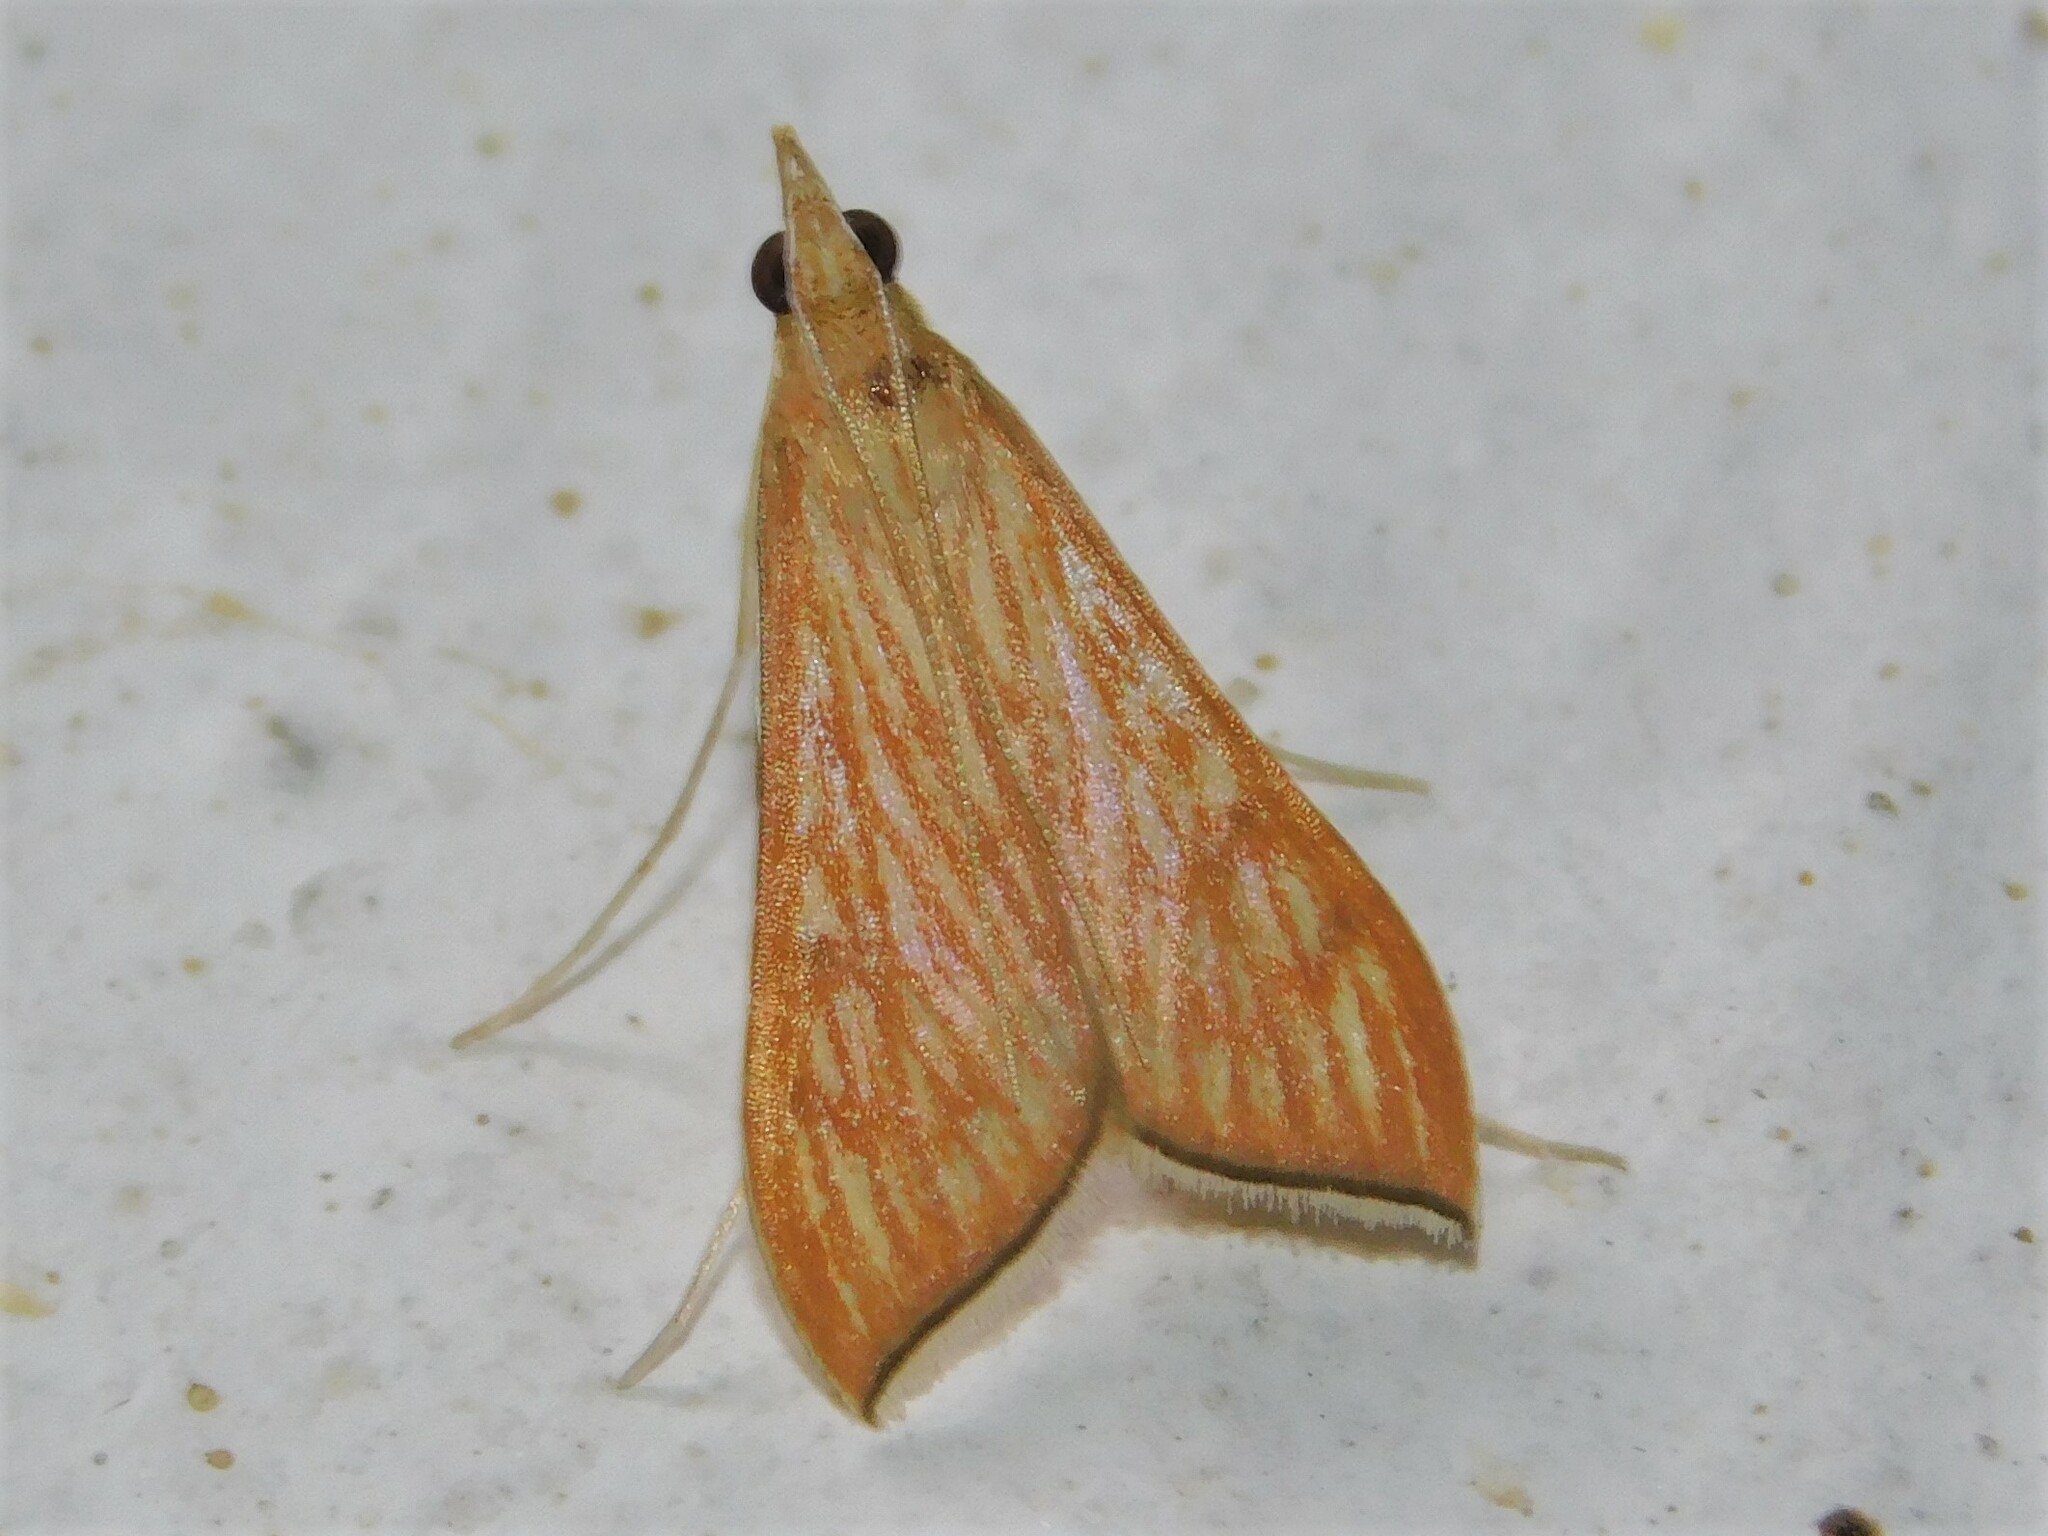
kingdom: Animalia
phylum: Arthropoda
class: Insecta
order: Lepidoptera
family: Crambidae
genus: Antigastra
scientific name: Antigastra catalaunalis
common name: Spanish dot
